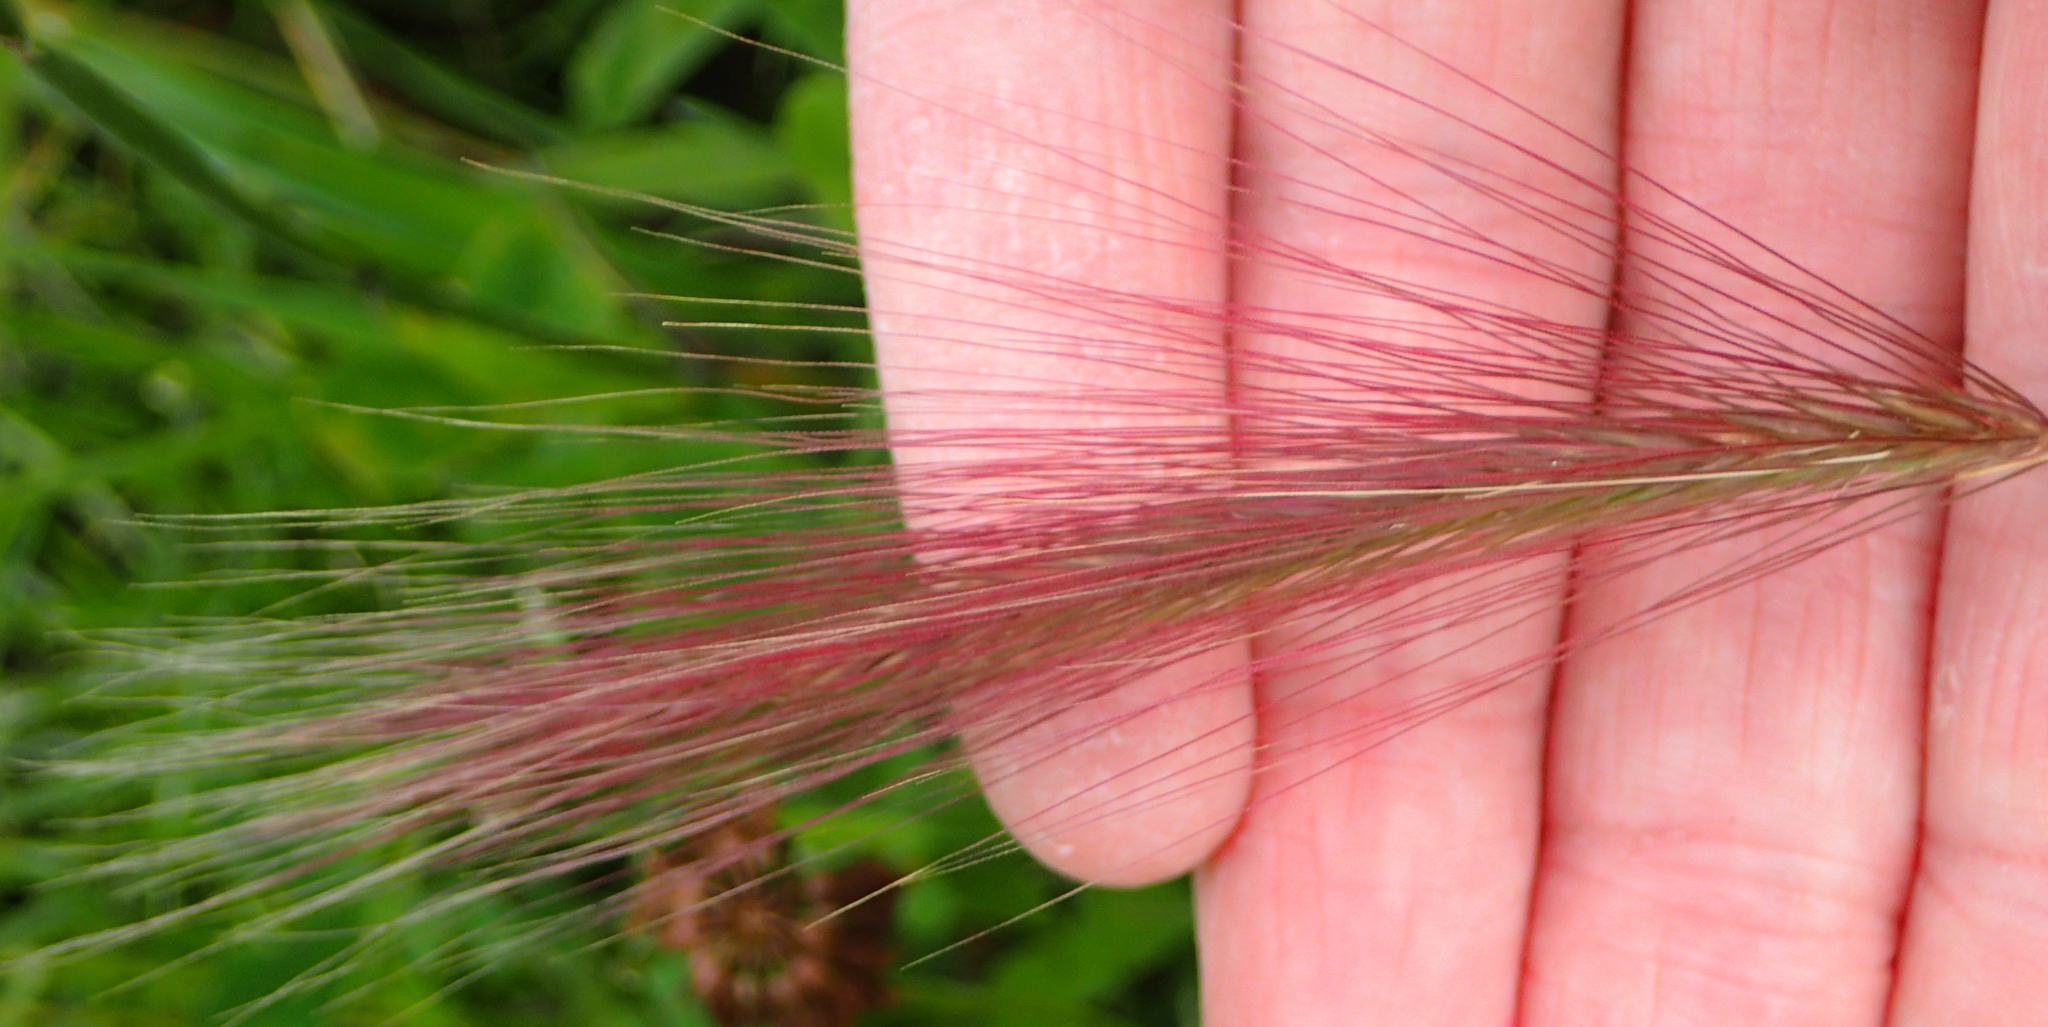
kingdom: Plantae
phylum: Tracheophyta
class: Liliopsida
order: Poales
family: Poaceae
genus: Hordeum
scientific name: Hordeum jubatum
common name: Foxtail barley
